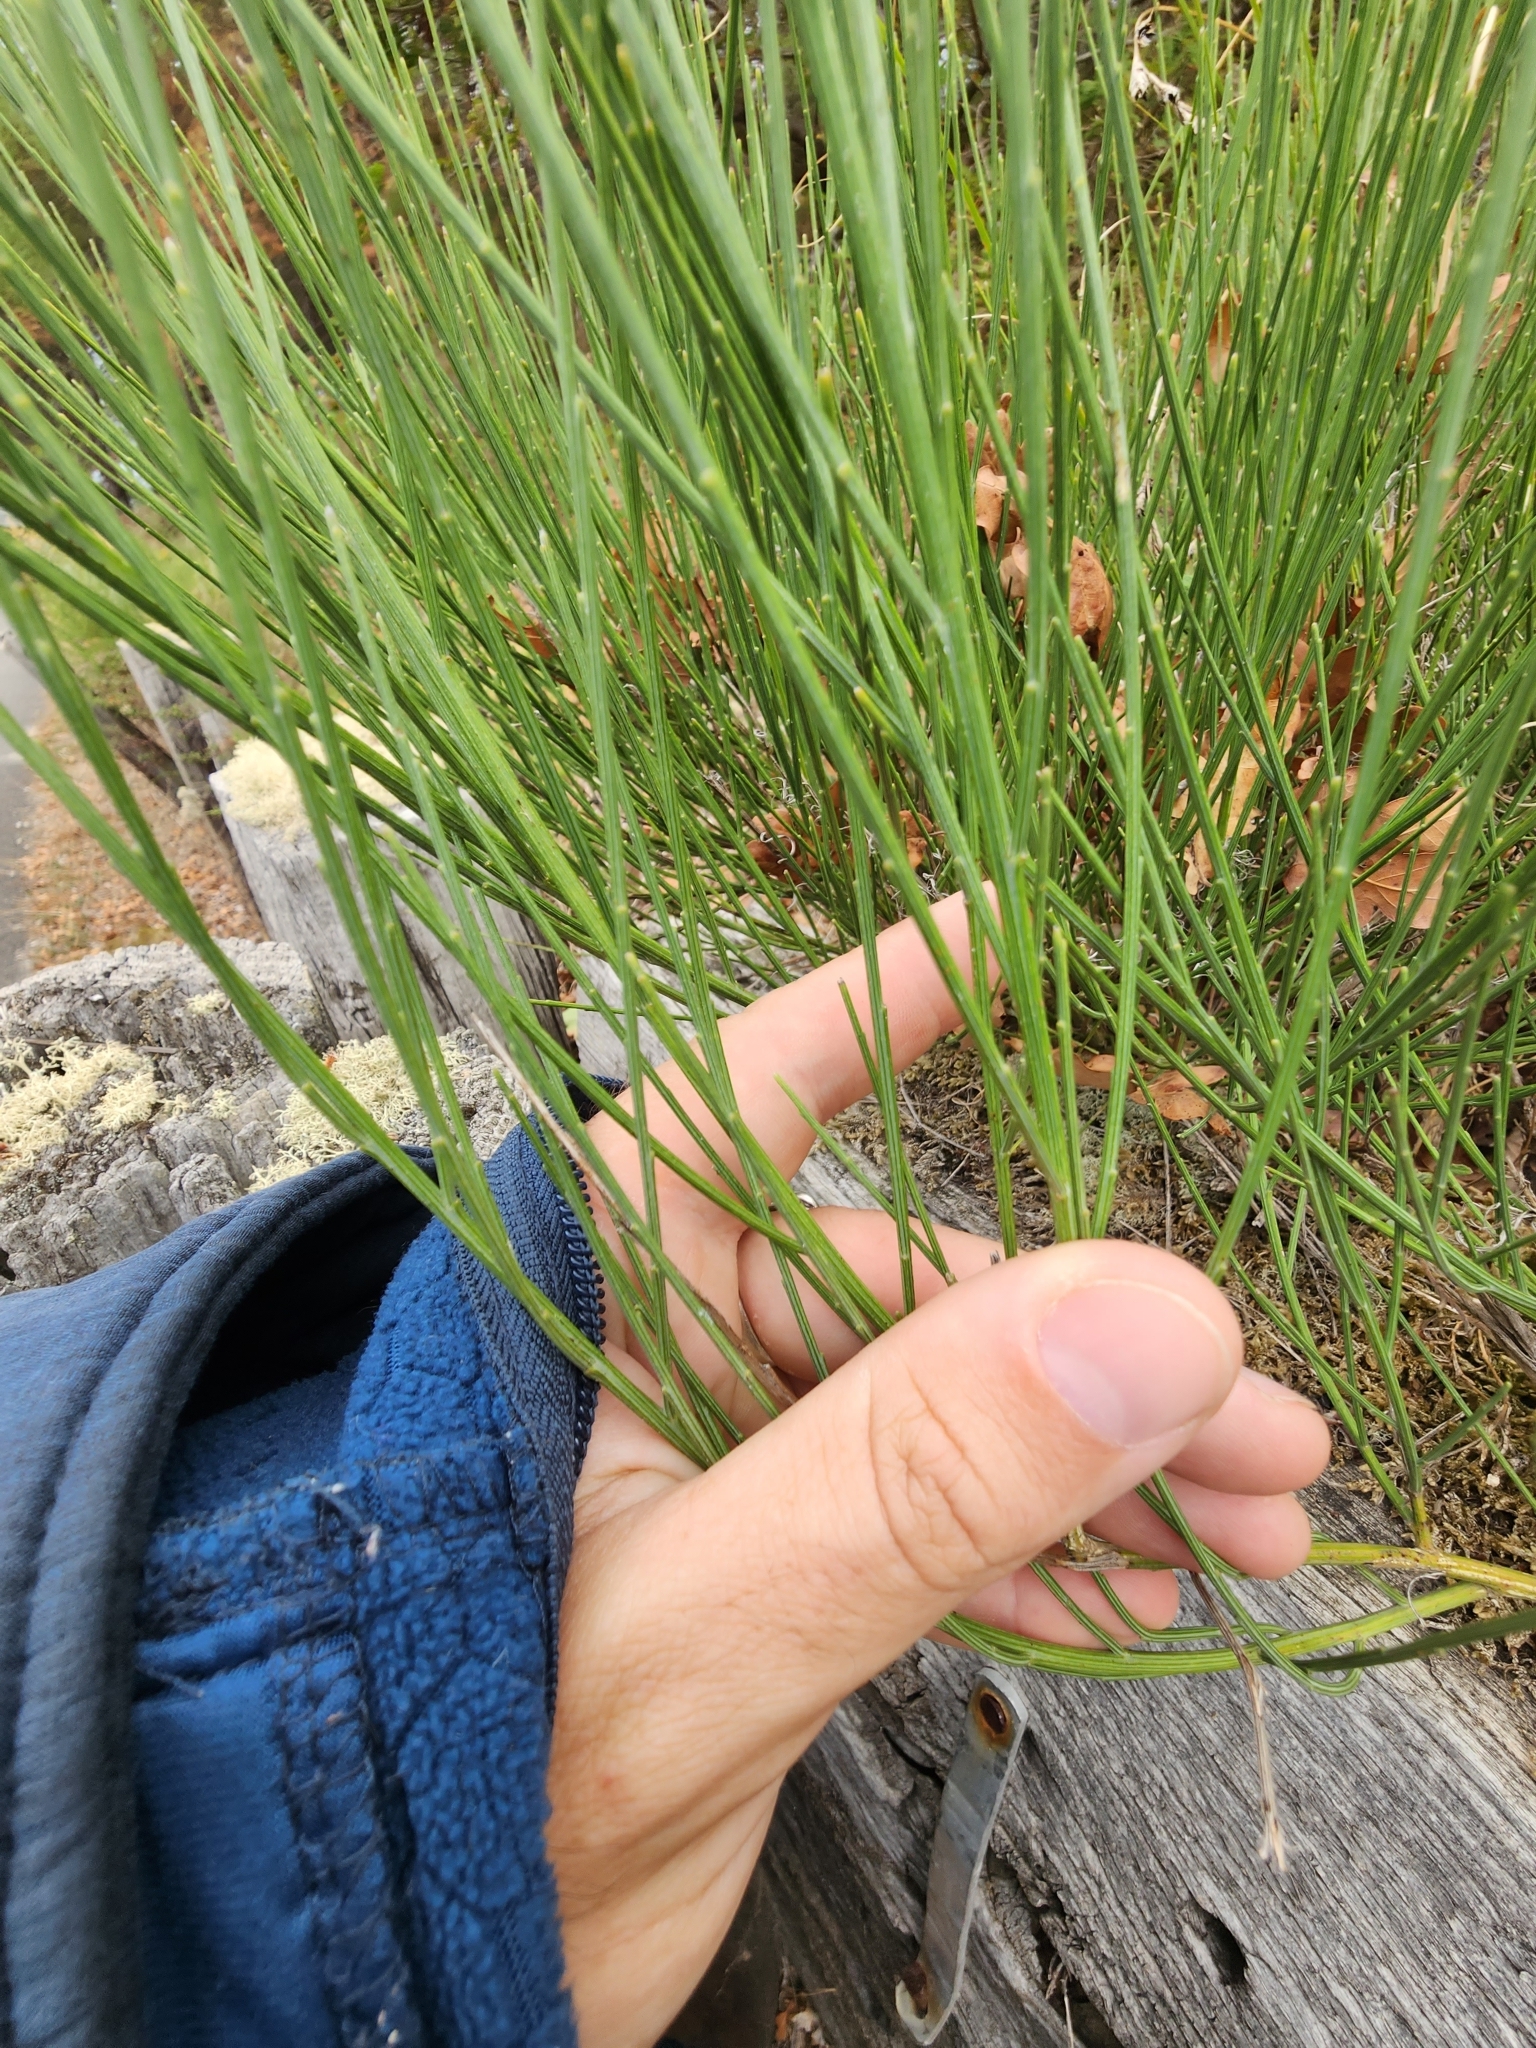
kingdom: Plantae
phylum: Tracheophyta
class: Magnoliopsida
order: Fabales
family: Fabaceae
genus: Cytisus
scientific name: Cytisus scoparius
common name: Scotch broom
